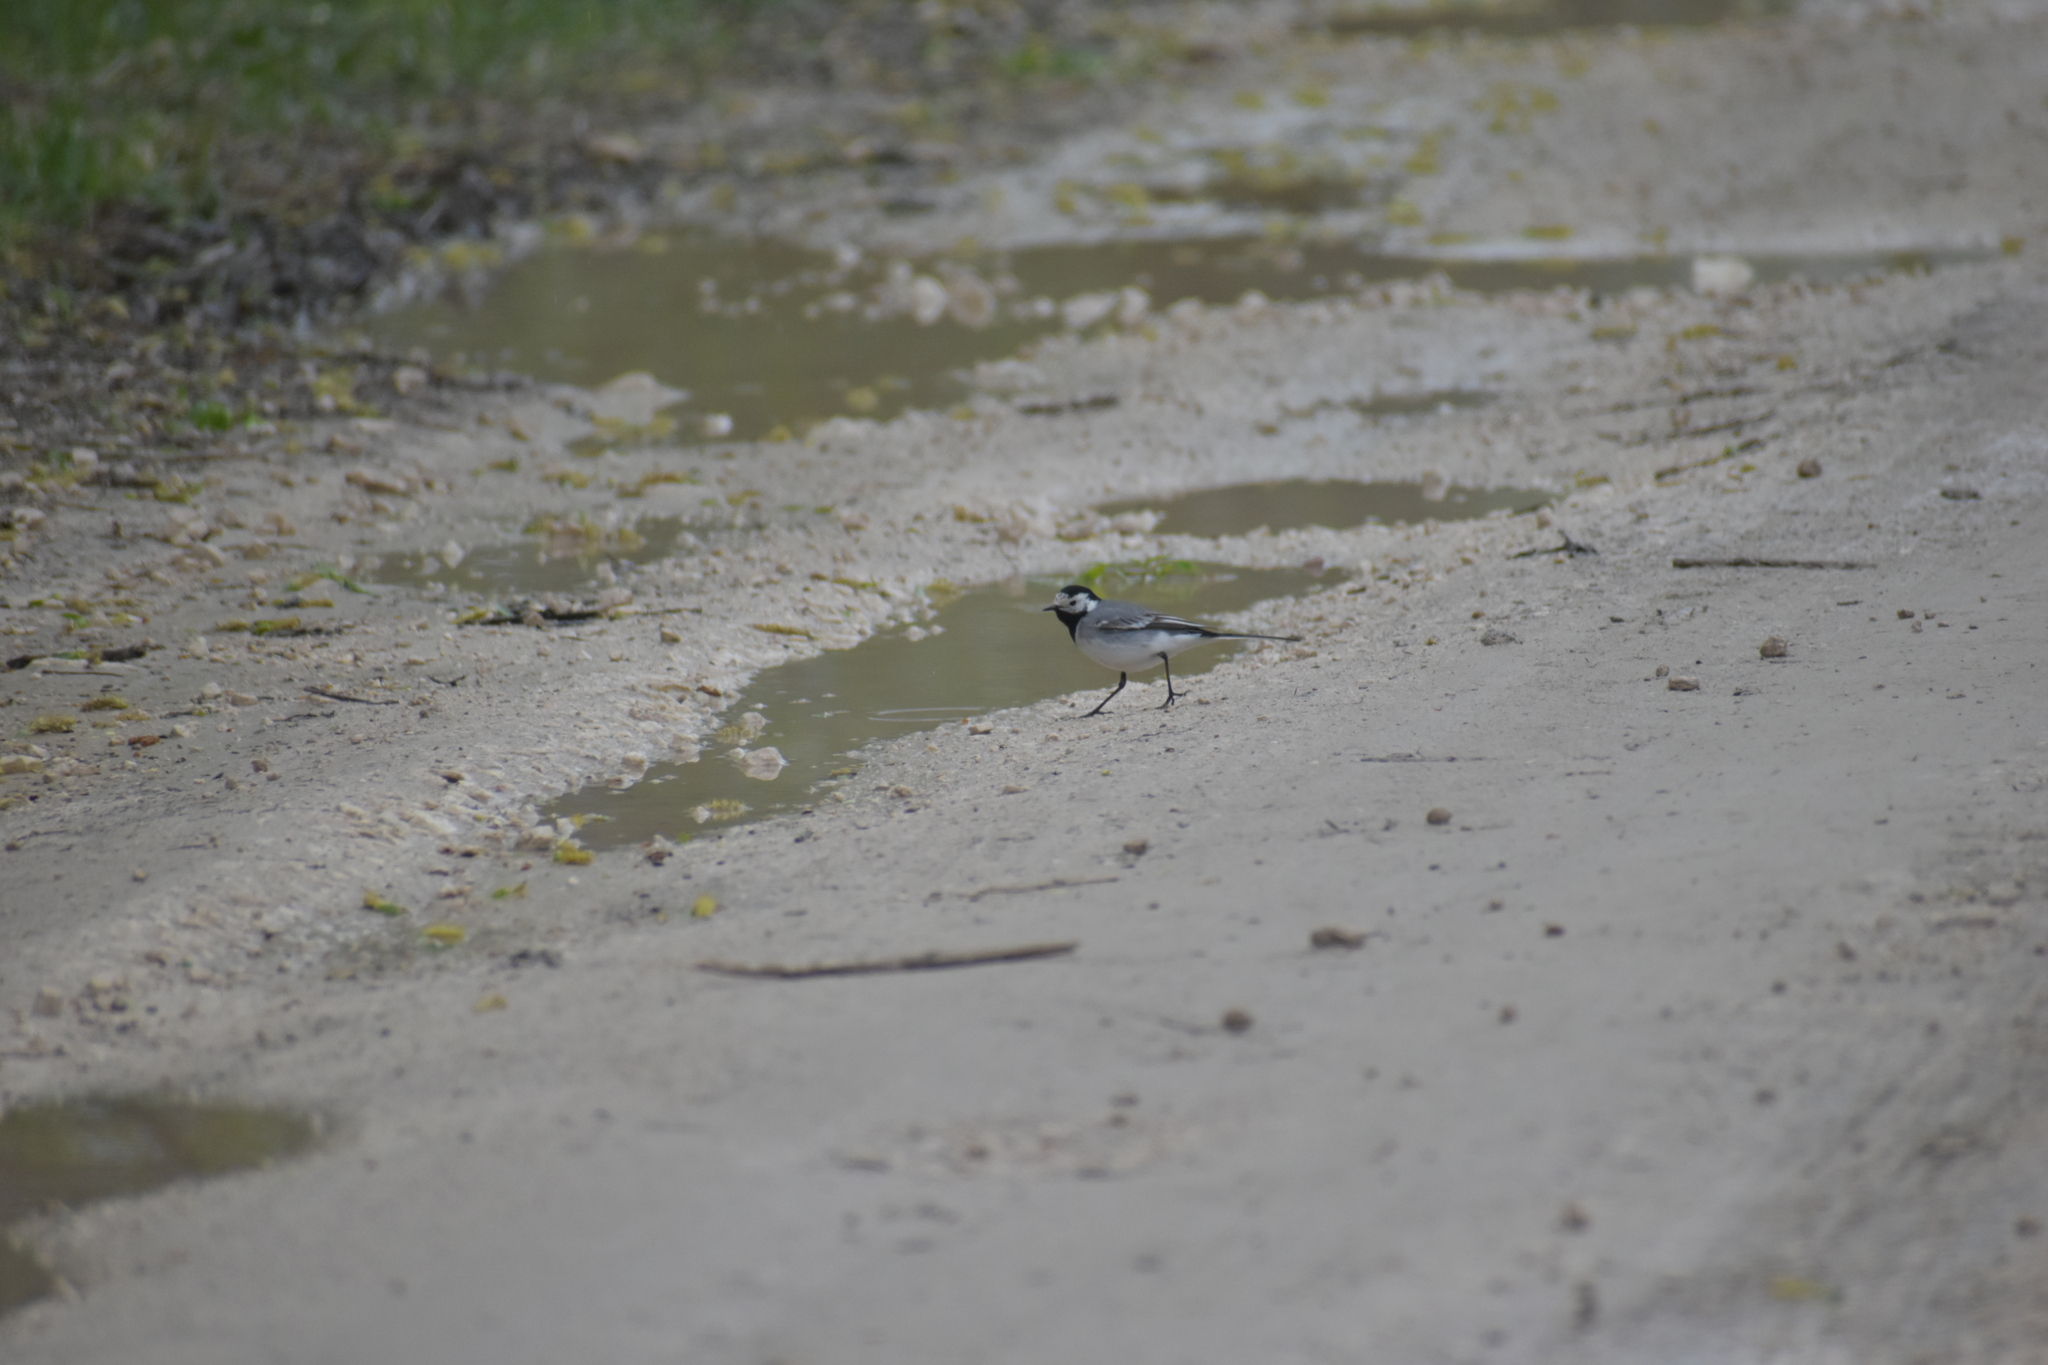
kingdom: Animalia
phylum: Chordata
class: Aves
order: Passeriformes
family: Motacillidae
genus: Motacilla
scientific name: Motacilla alba
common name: White wagtail
